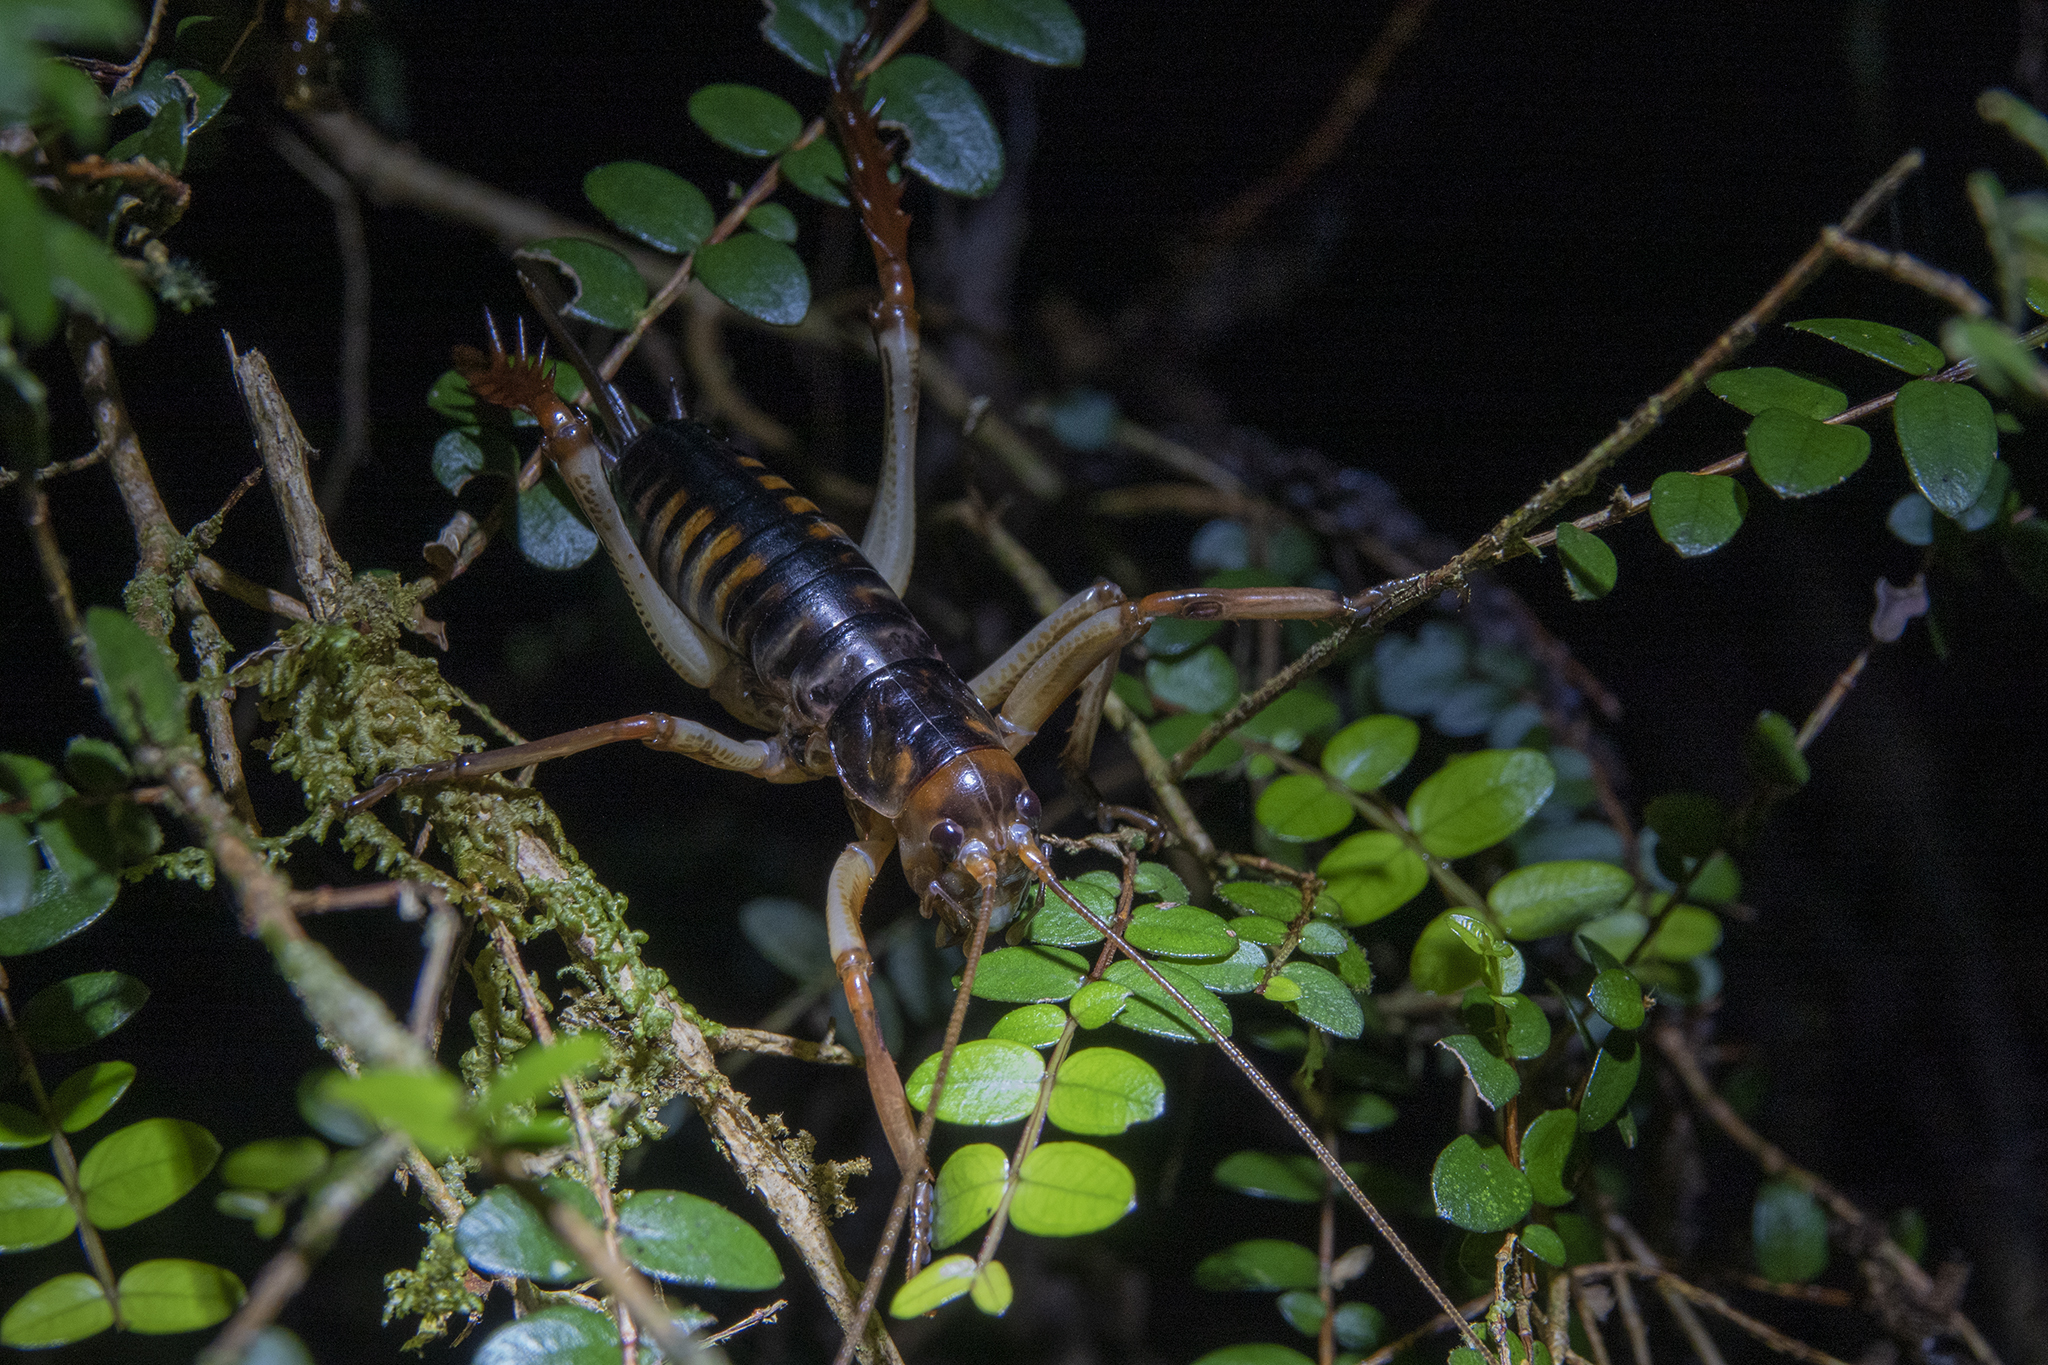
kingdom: Animalia
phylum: Arthropoda
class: Insecta
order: Orthoptera
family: Anostostomatidae
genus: Hemideina
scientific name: Hemideina crassidens
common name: Wellington tree weta
